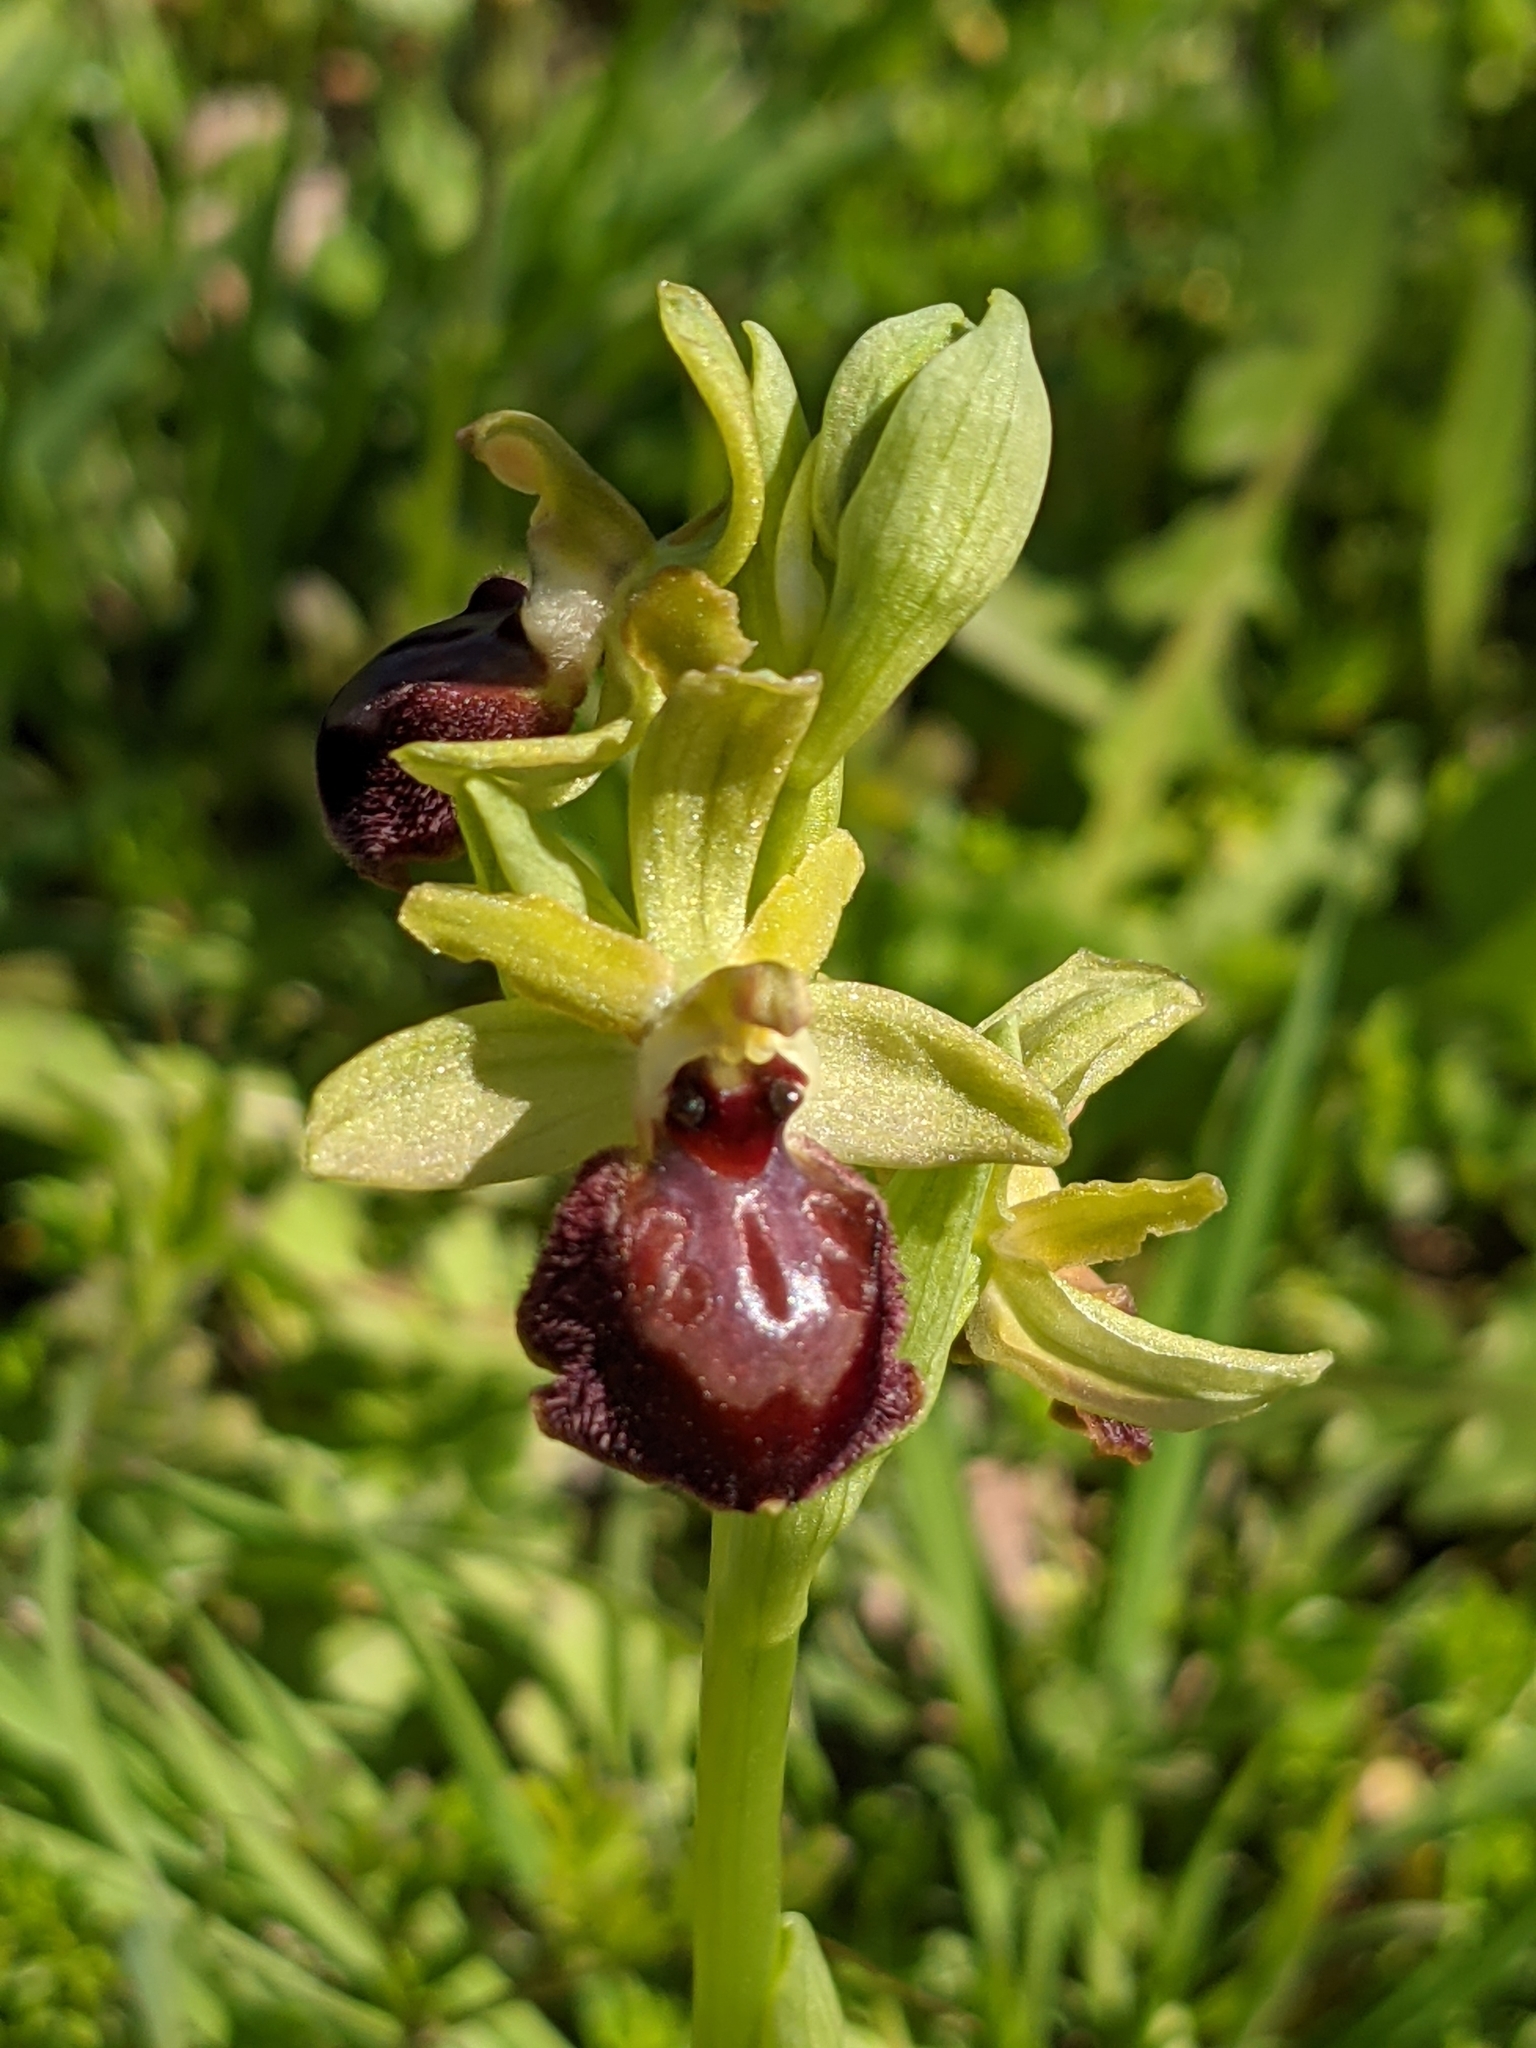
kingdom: Plantae
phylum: Tracheophyta
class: Liliopsida
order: Asparagales
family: Orchidaceae
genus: Ophrys
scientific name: Ophrys arachnitiformis
